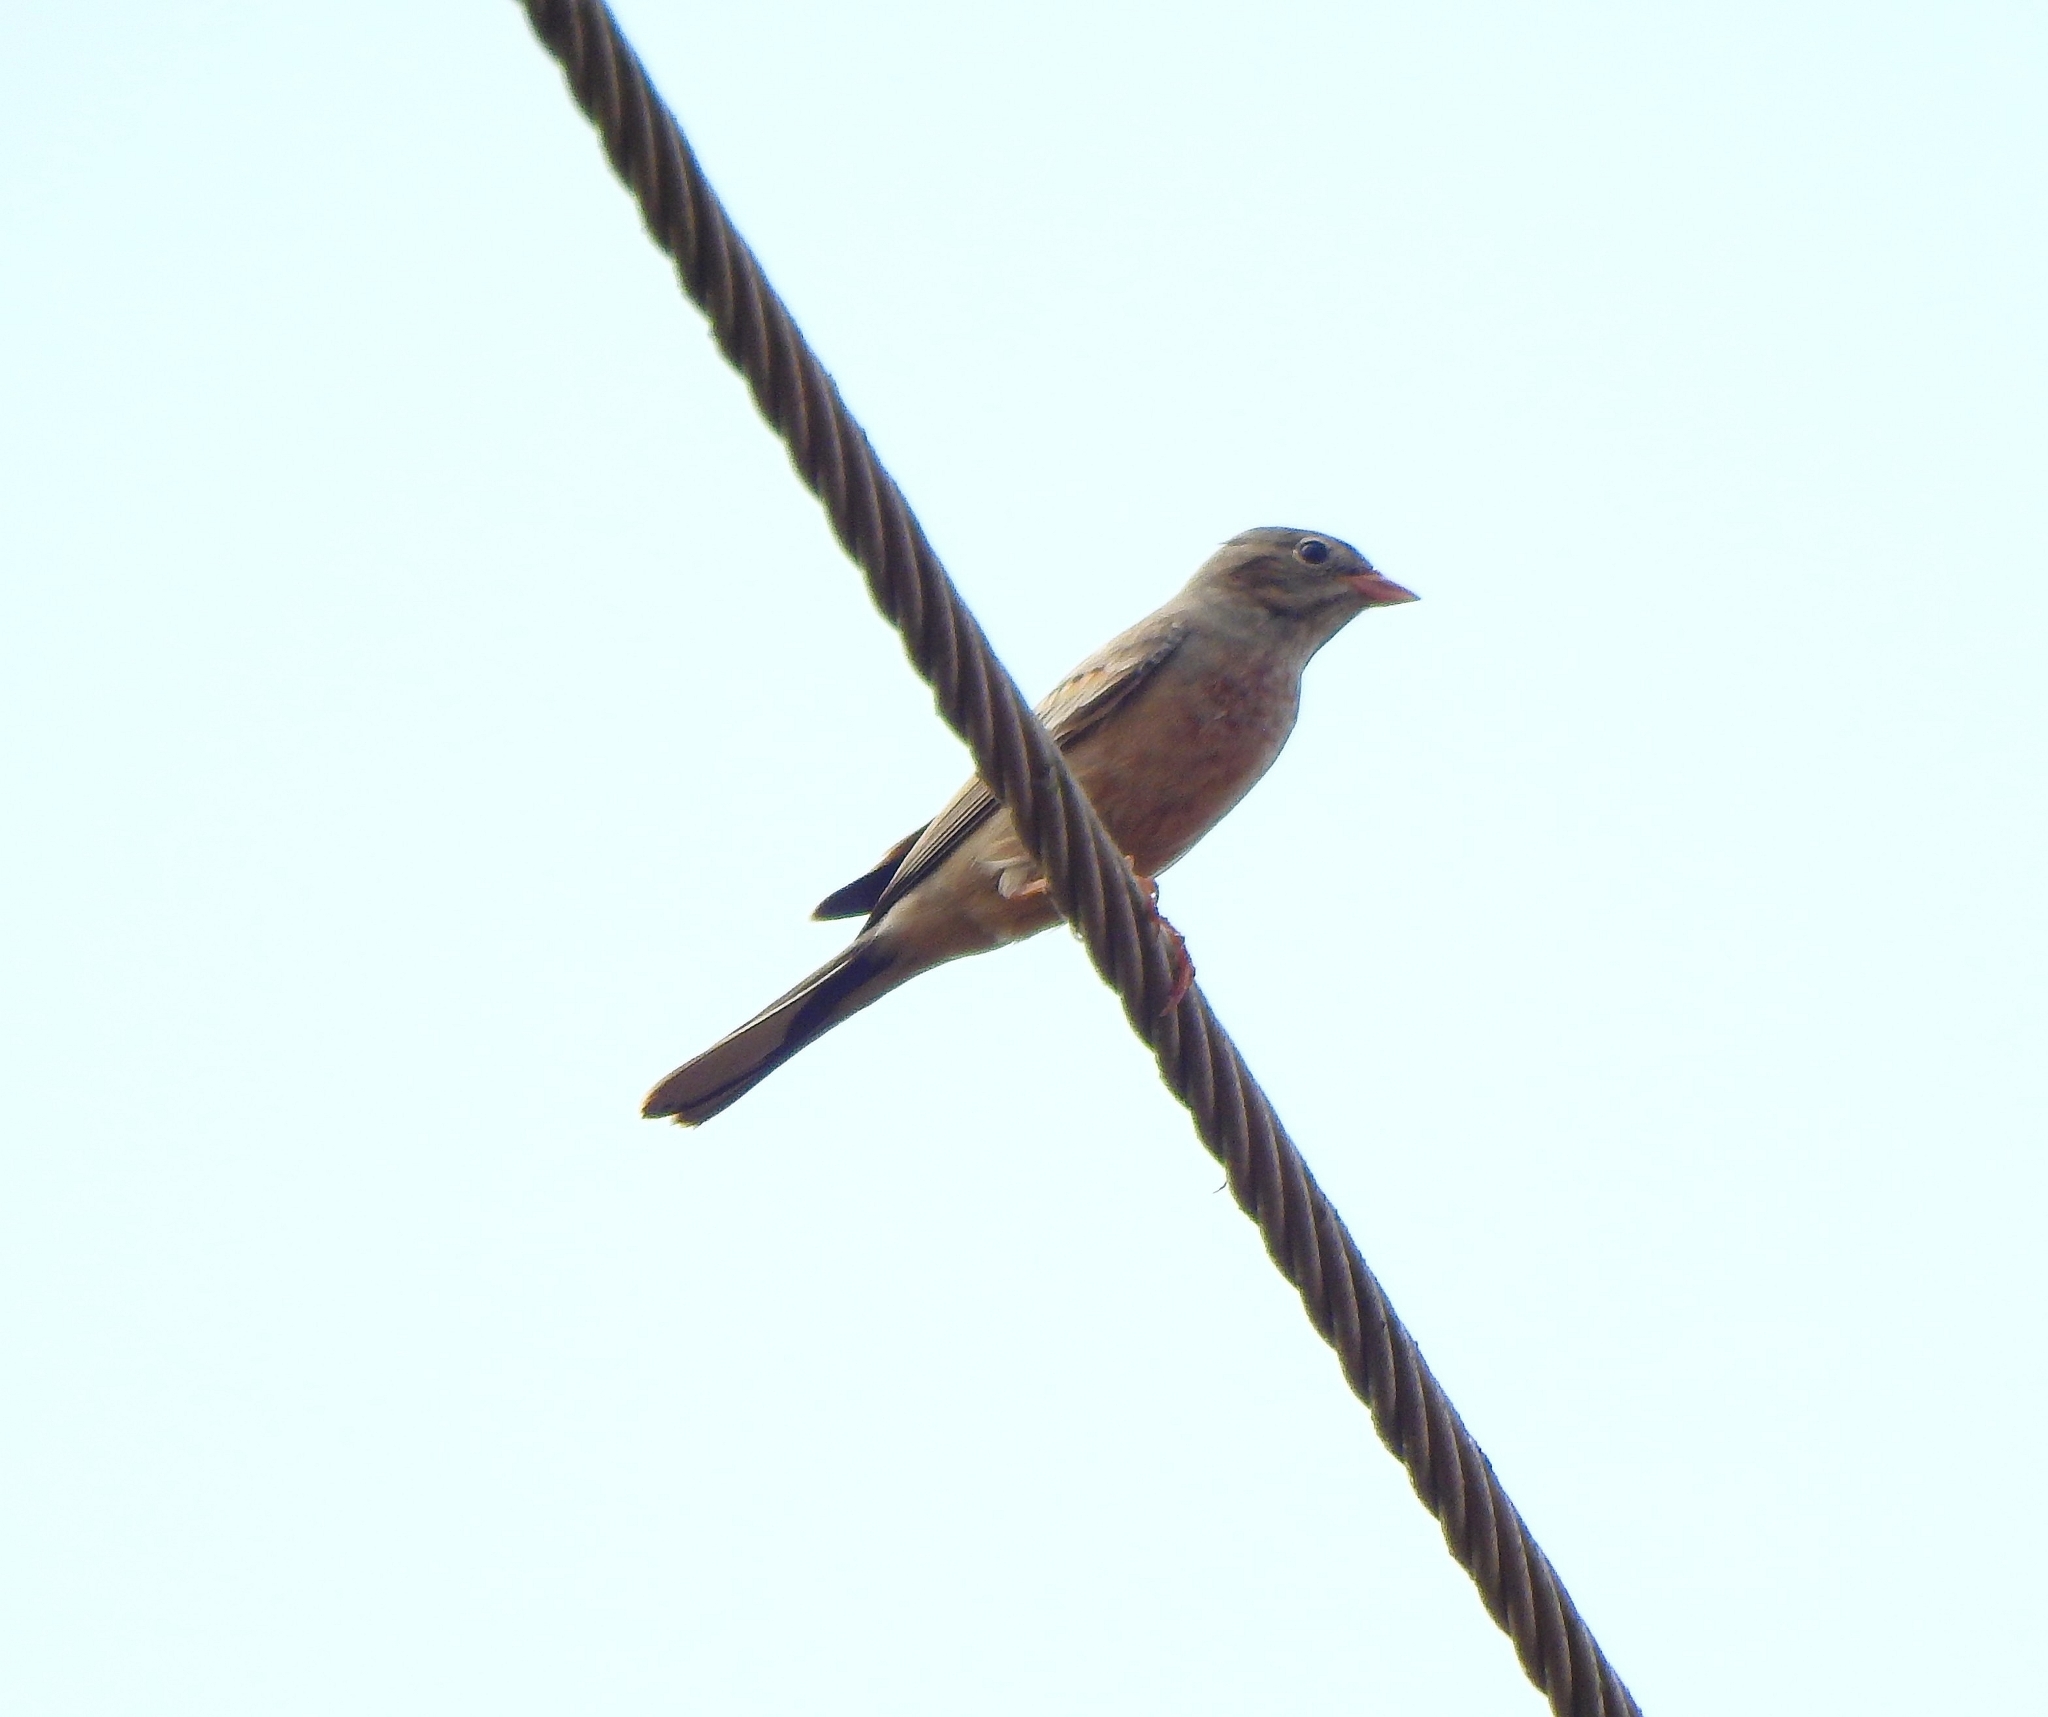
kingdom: Animalia
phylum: Chordata
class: Aves
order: Passeriformes
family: Emberizidae
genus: Emberiza
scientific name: Emberiza buchanani
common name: Grey-necked bunting
